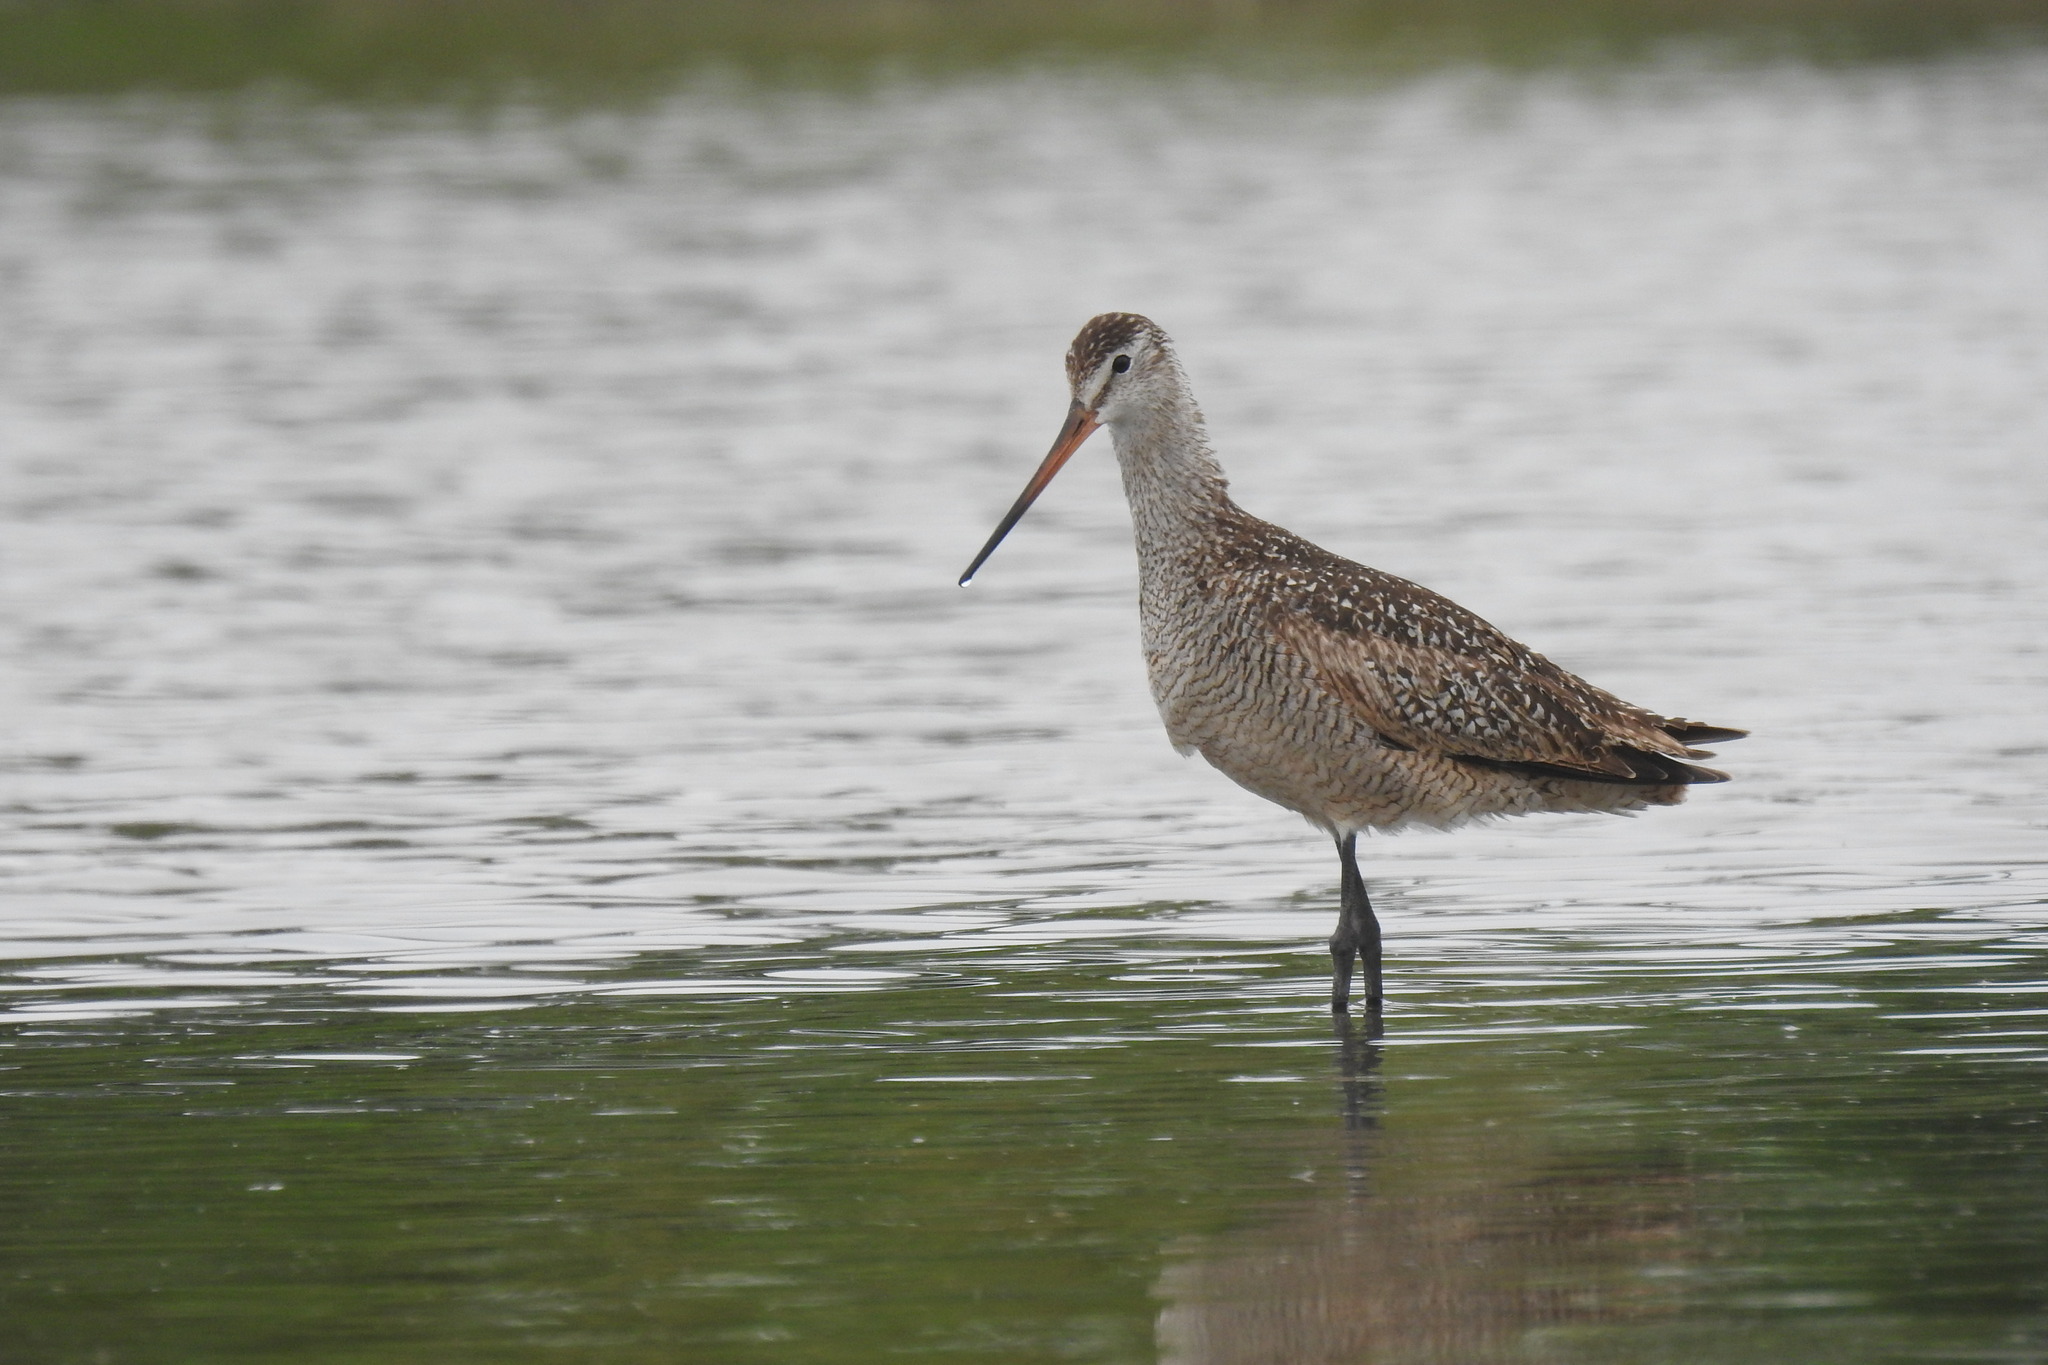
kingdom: Animalia
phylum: Chordata
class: Aves
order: Charadriiformes
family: Scolopacidae
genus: Limosa
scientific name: Limosa fedoa
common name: Marbled godwit
